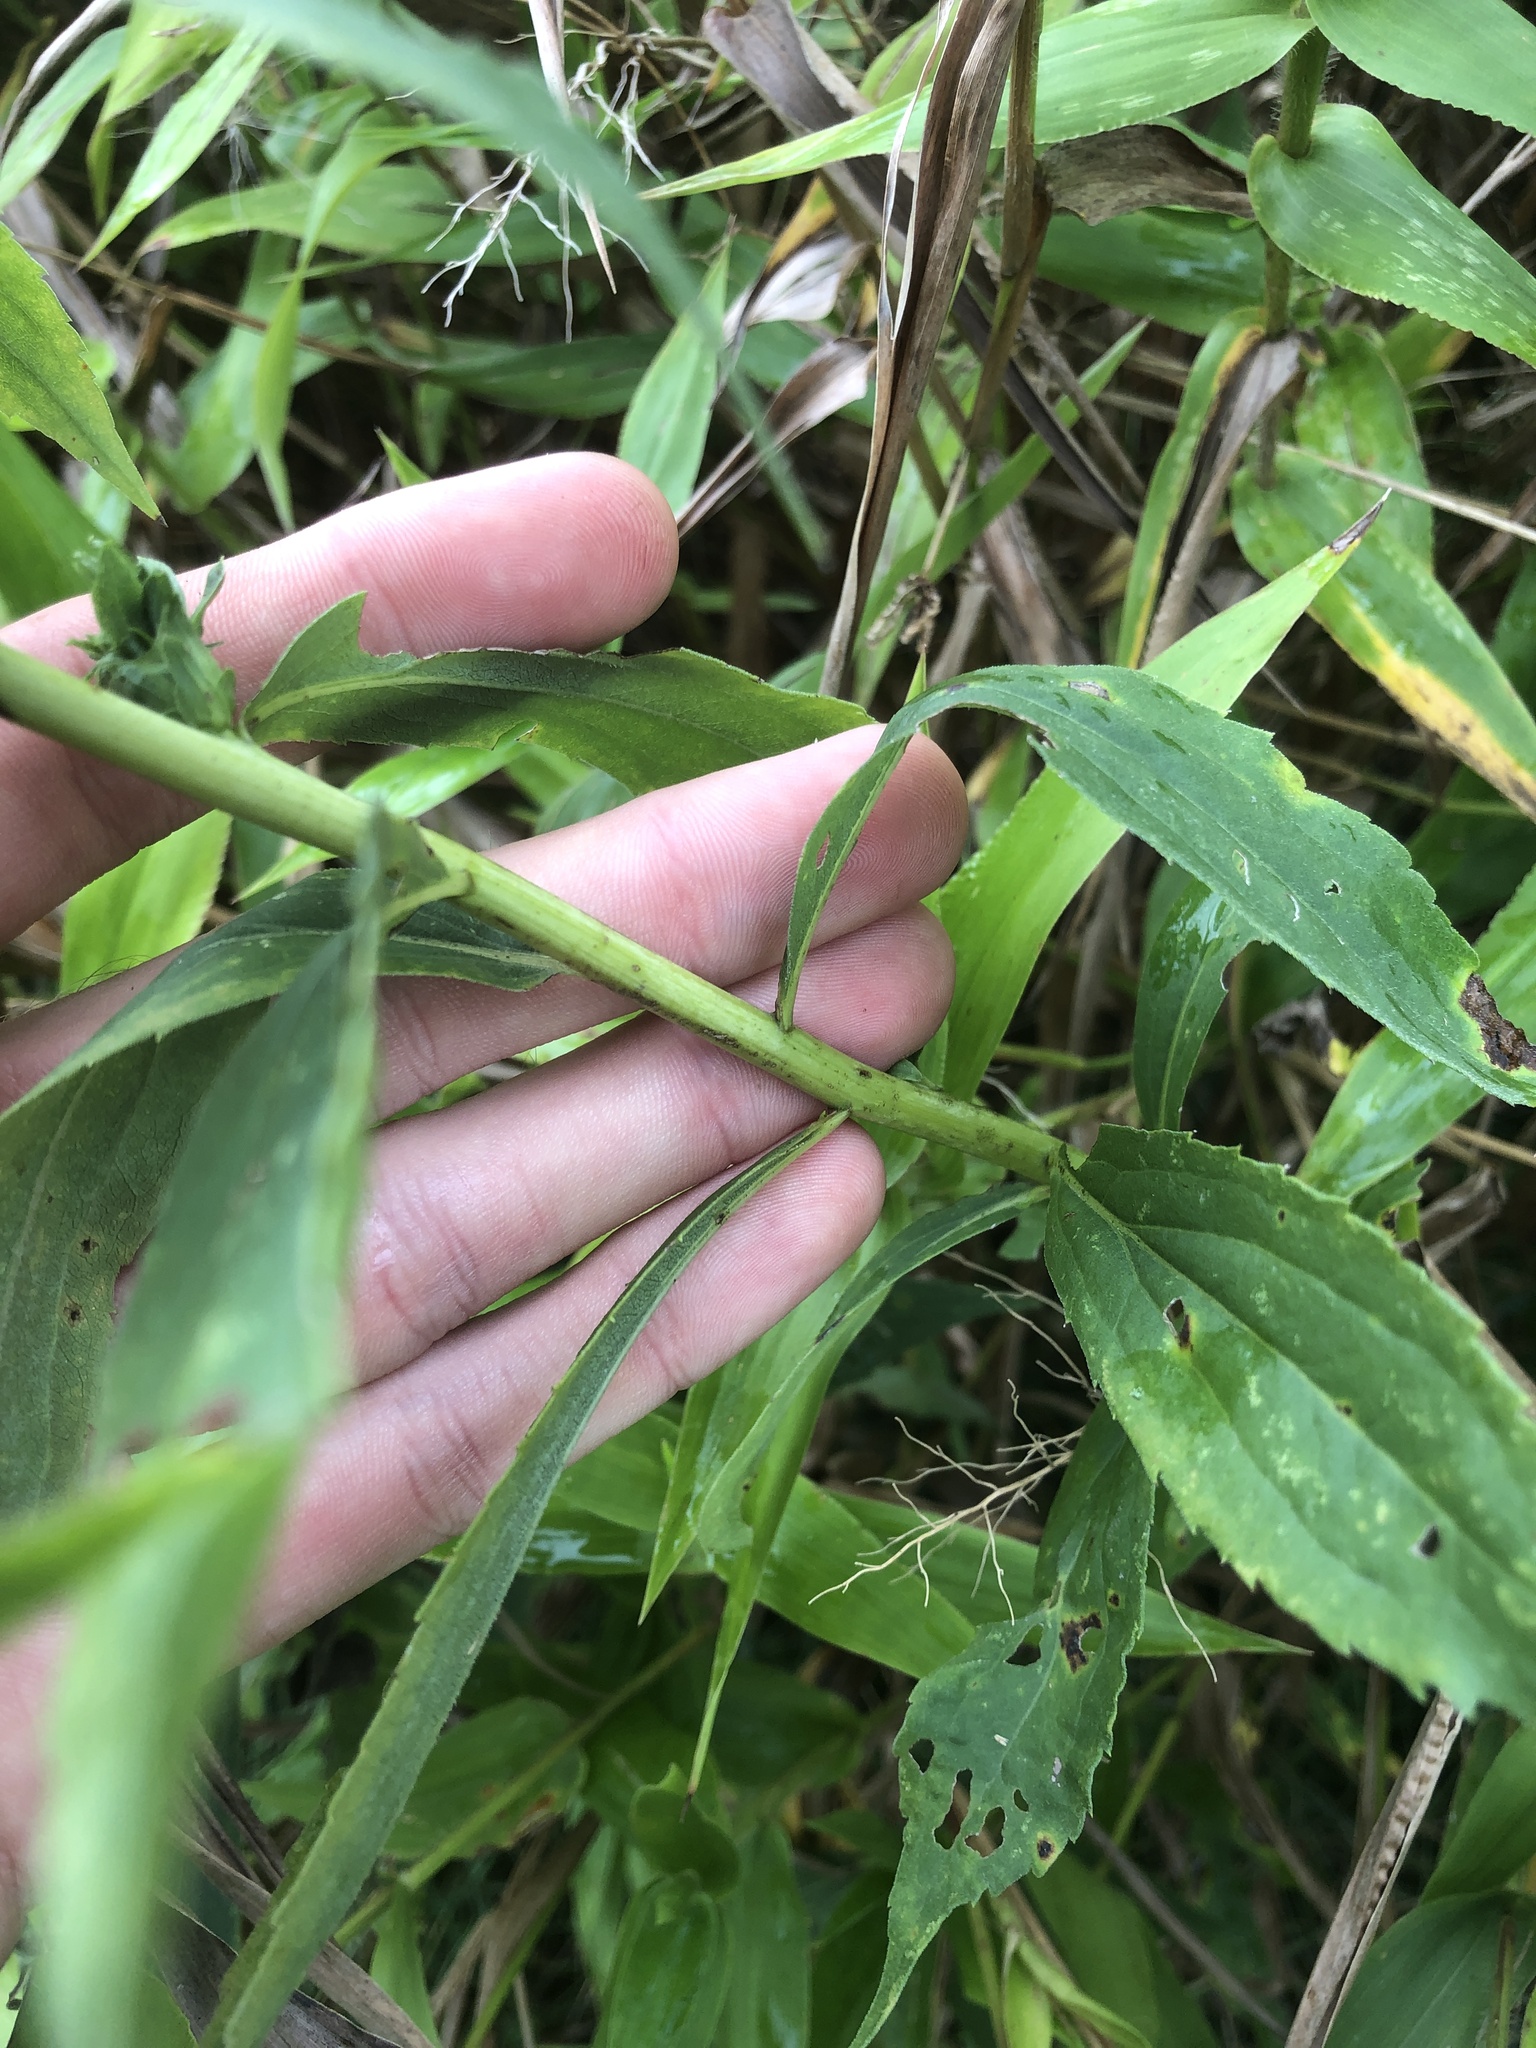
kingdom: Animalia
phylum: Arthropoda
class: Insecta
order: Diptera
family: Cecidomyiidae
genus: Rhopalomyia
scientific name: Rhopalomyia capitata
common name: Giant goldenrod bunch gall midge
